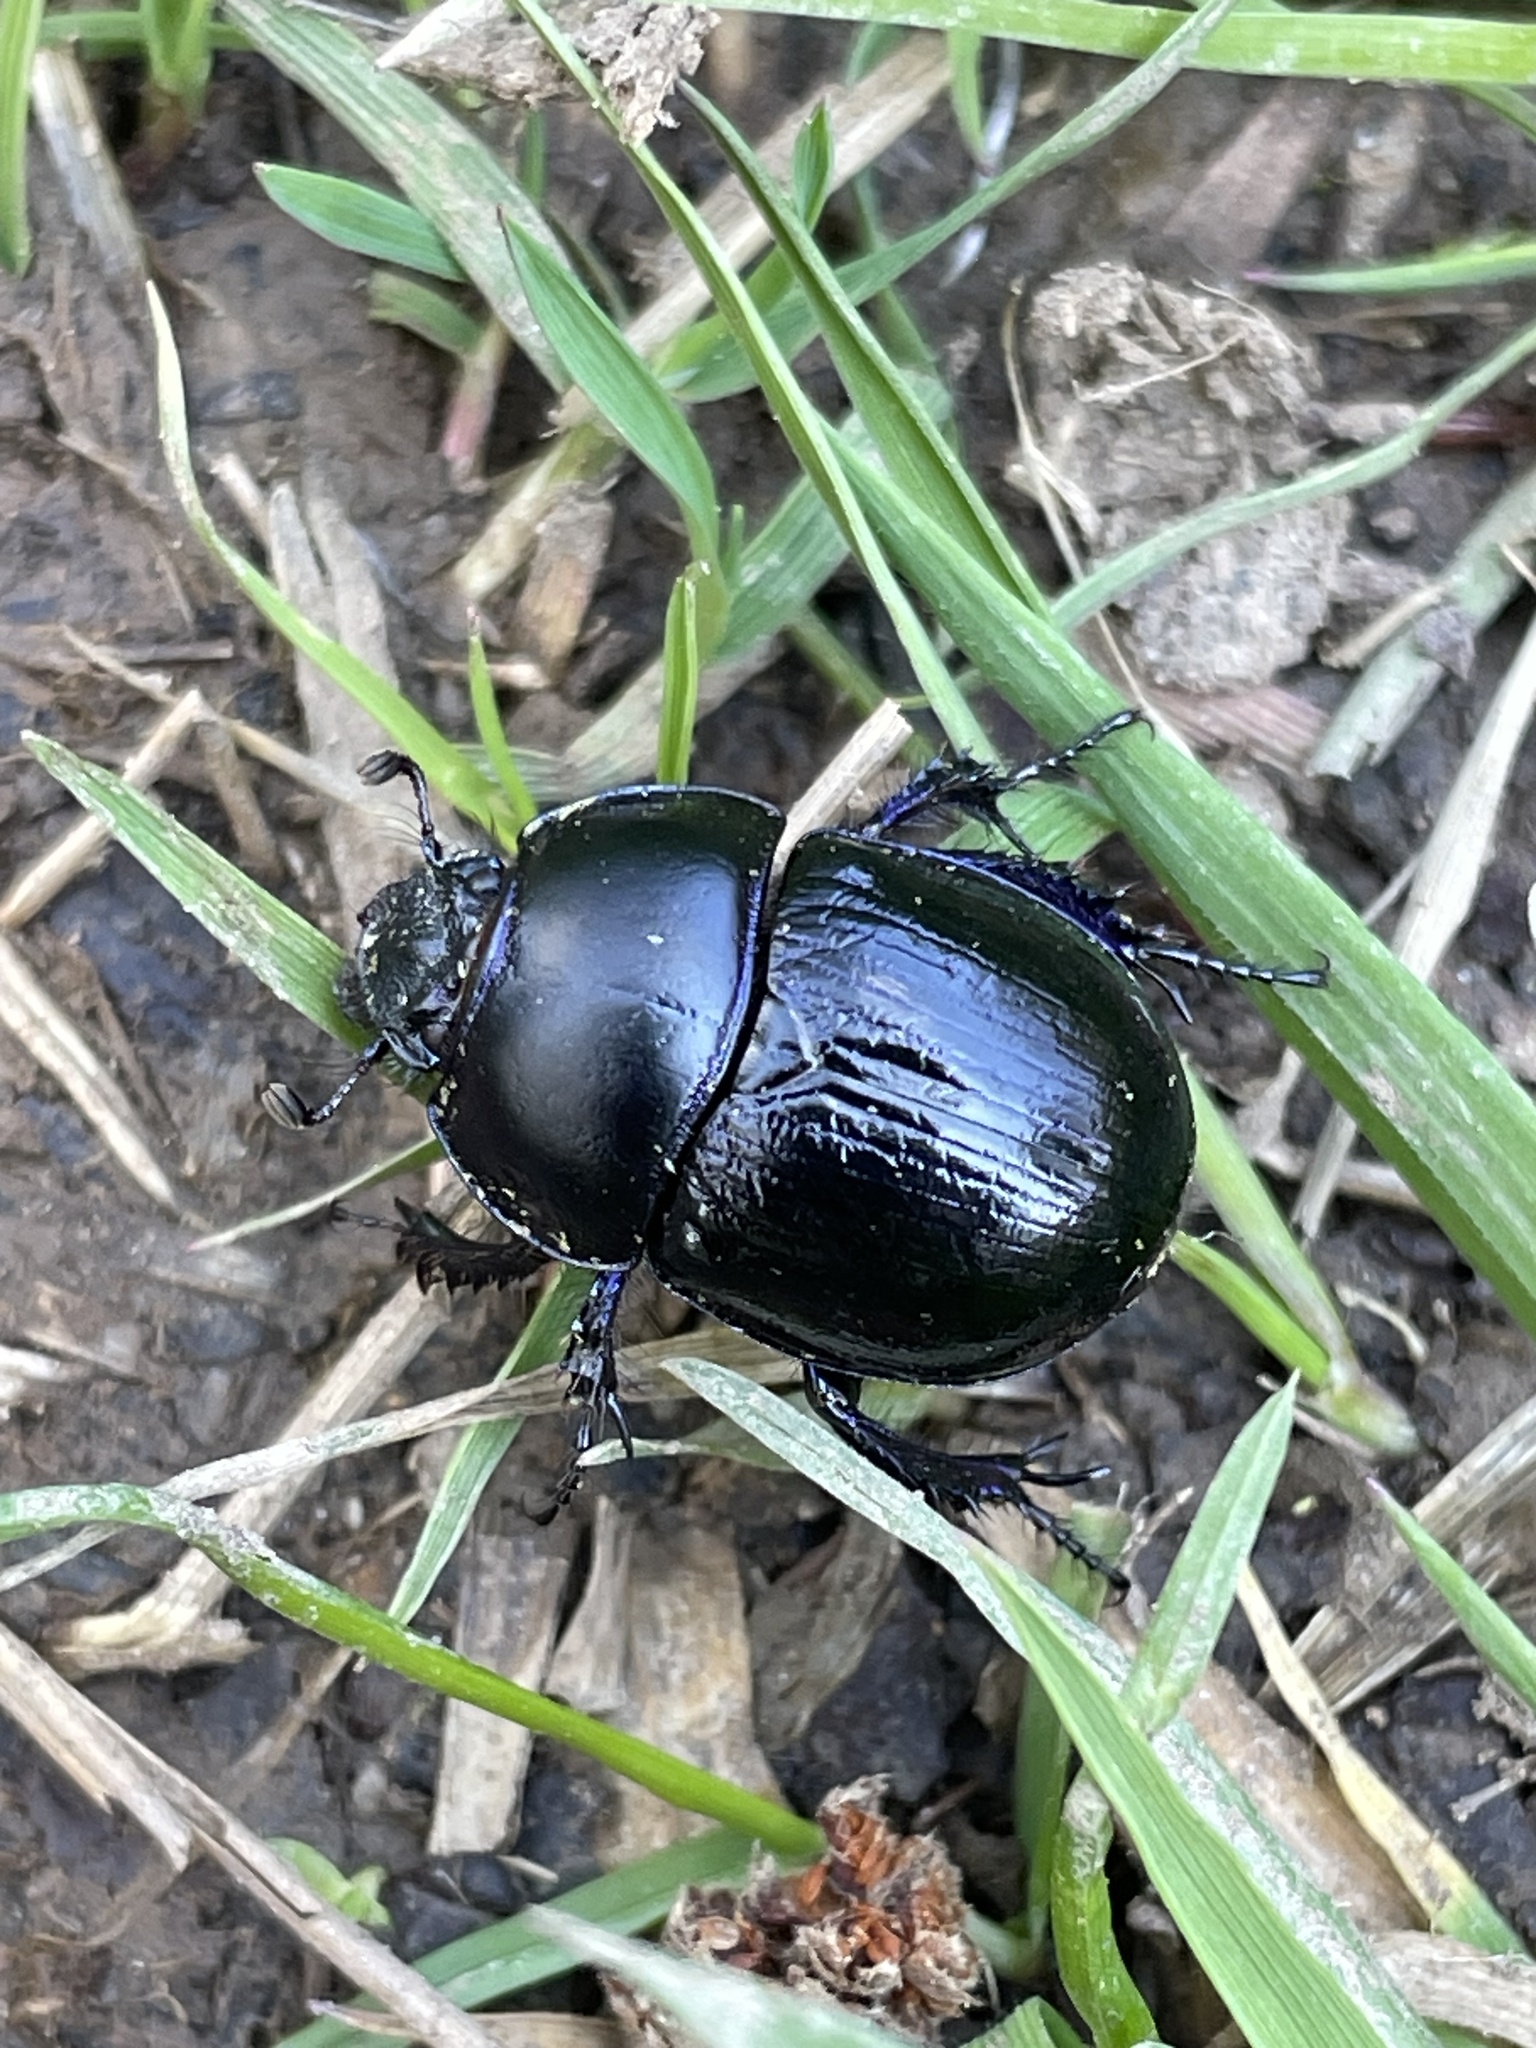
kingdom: Animalia
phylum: Arthropoda
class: Insecta
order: Coleoptera
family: Geotrupidae
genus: Anoplotrupes
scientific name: Anoplotrupes stercorosus
